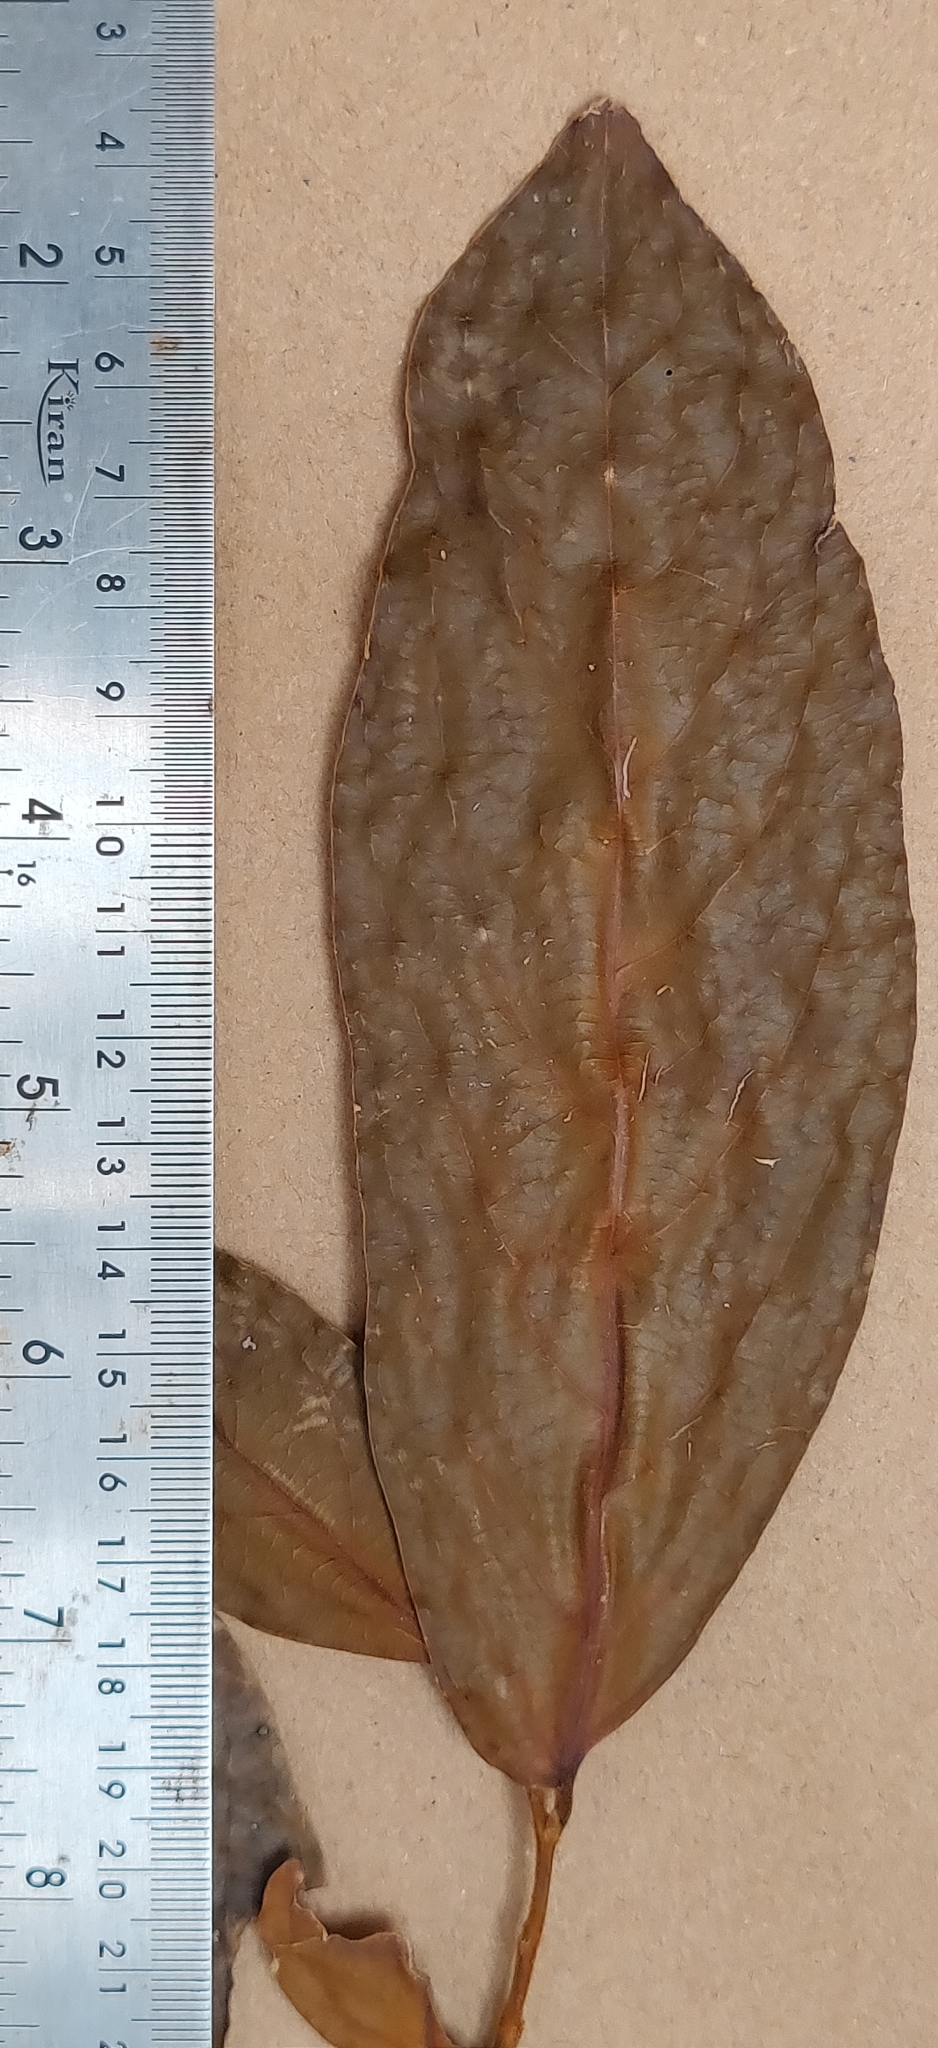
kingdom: Plantae
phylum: Tracheophyta
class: Magnoliopsida
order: Malpighiales
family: Putranjivaceae
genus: Drypetes
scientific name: Drypetes malabarica
